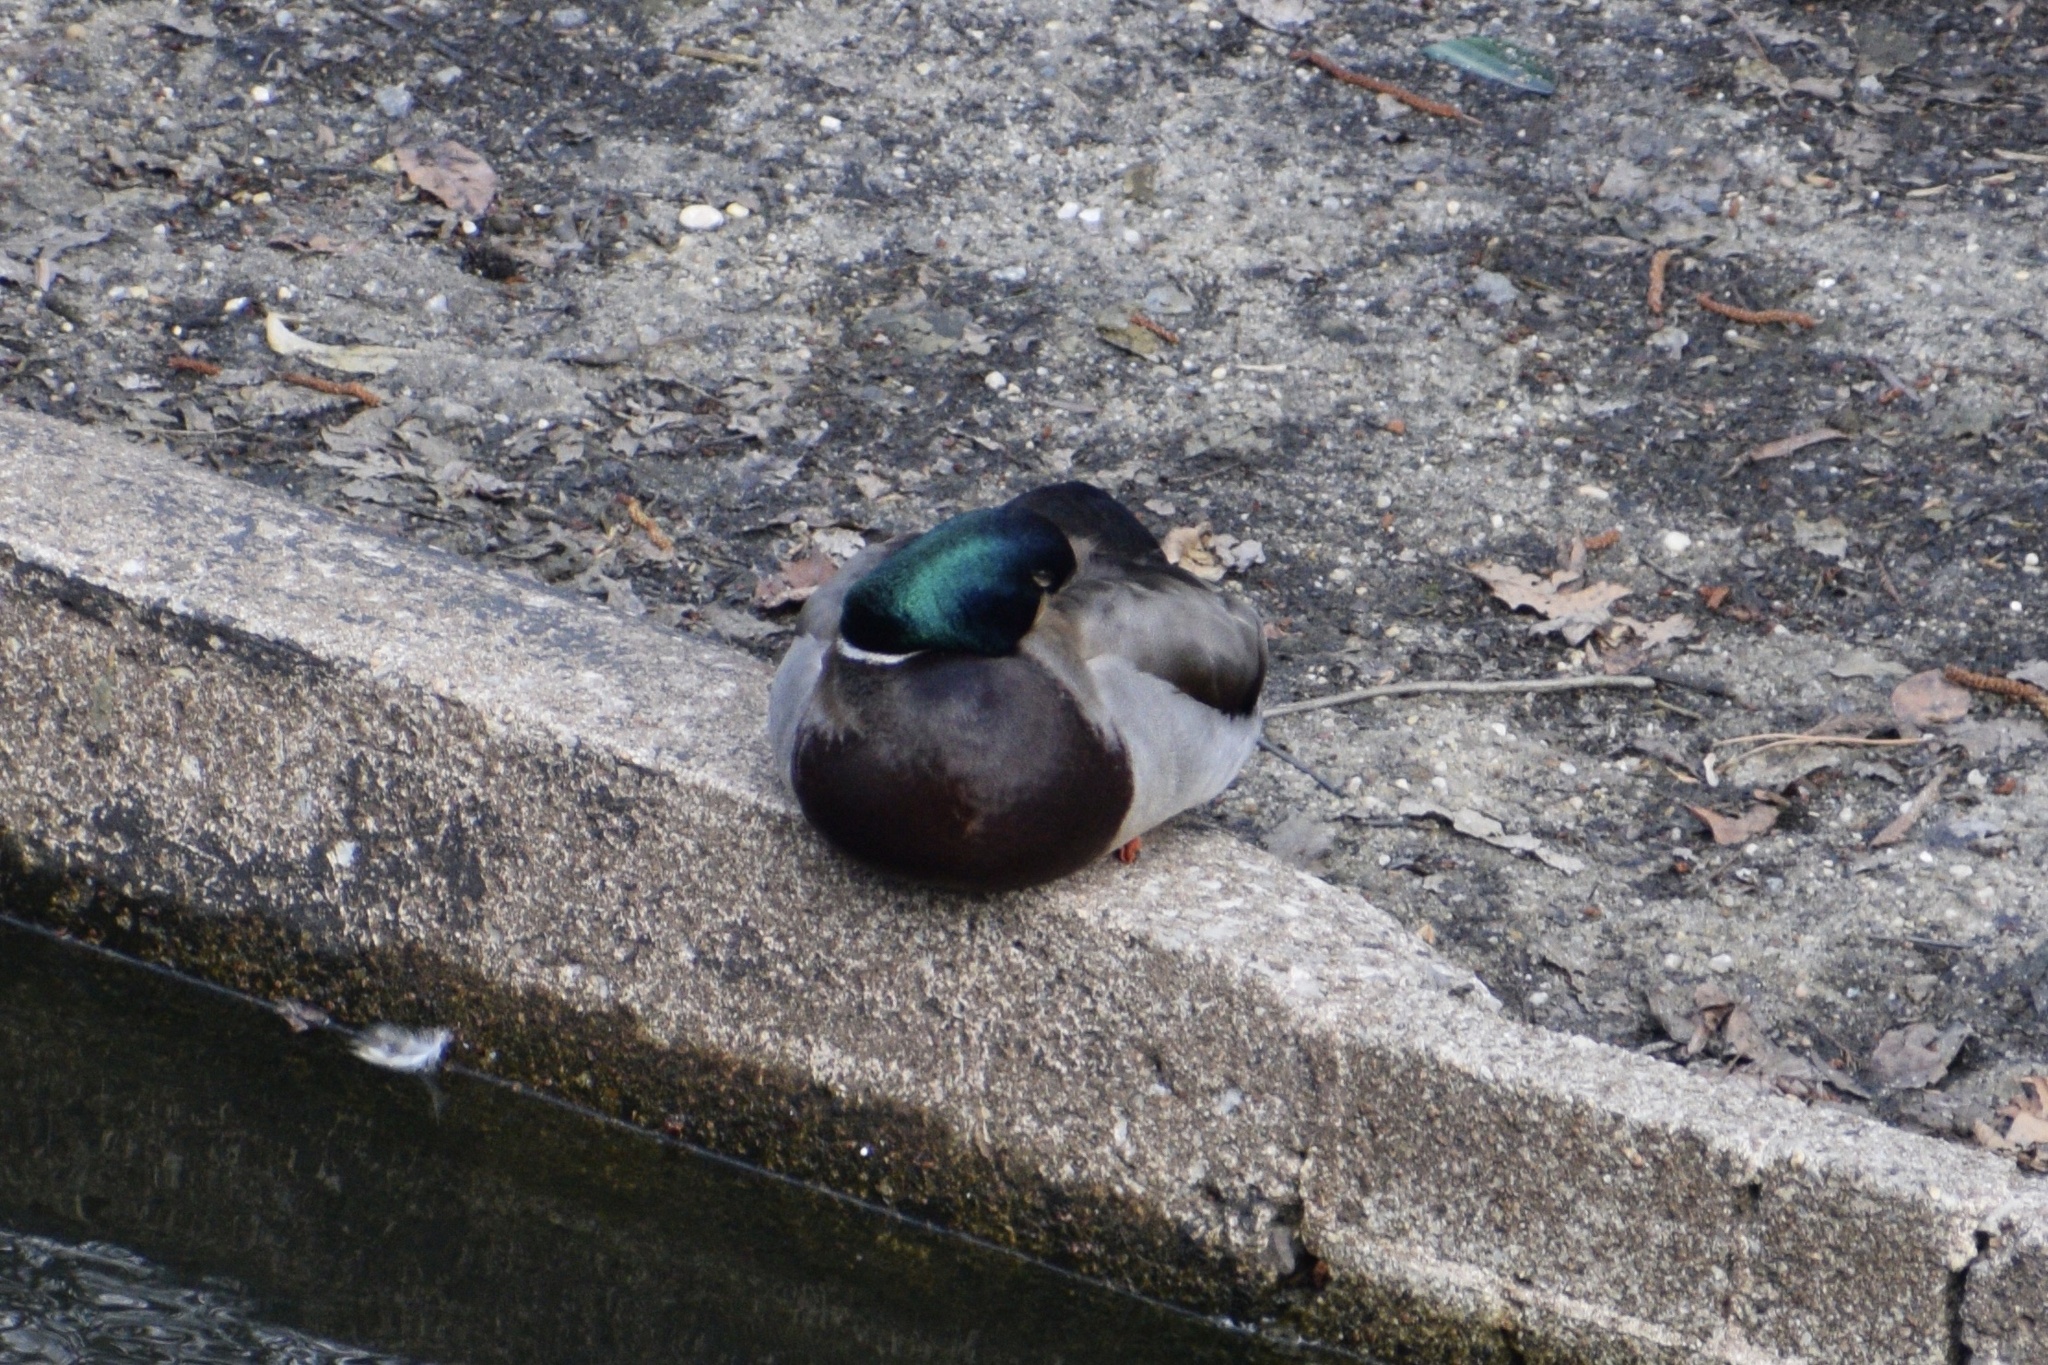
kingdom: Animalia
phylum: Chordata
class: Aves
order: Anseriformes
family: Anatidae
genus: Anas
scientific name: Anas platyrhynchos
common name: Mallard
